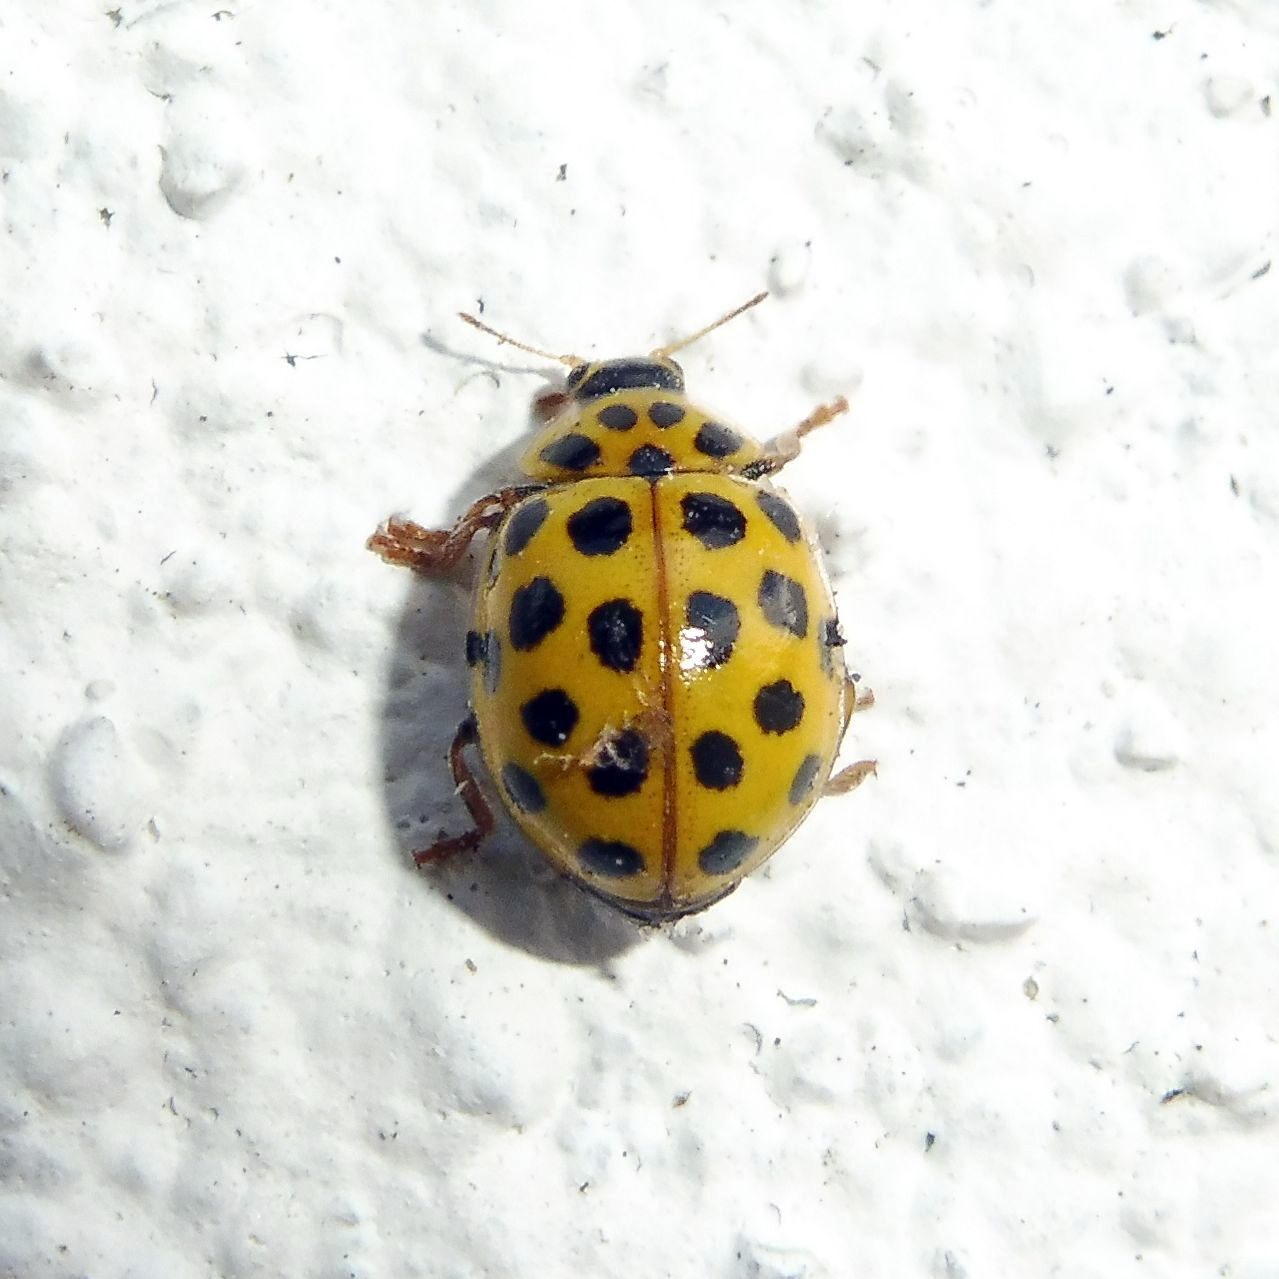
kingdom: Animalia
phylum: Arthropoda
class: Insecta
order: Coleoptera
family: Coccinellidae
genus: Psyllobora
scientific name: Psyllobora vigintiduopunctata
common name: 22-spot ladybird
